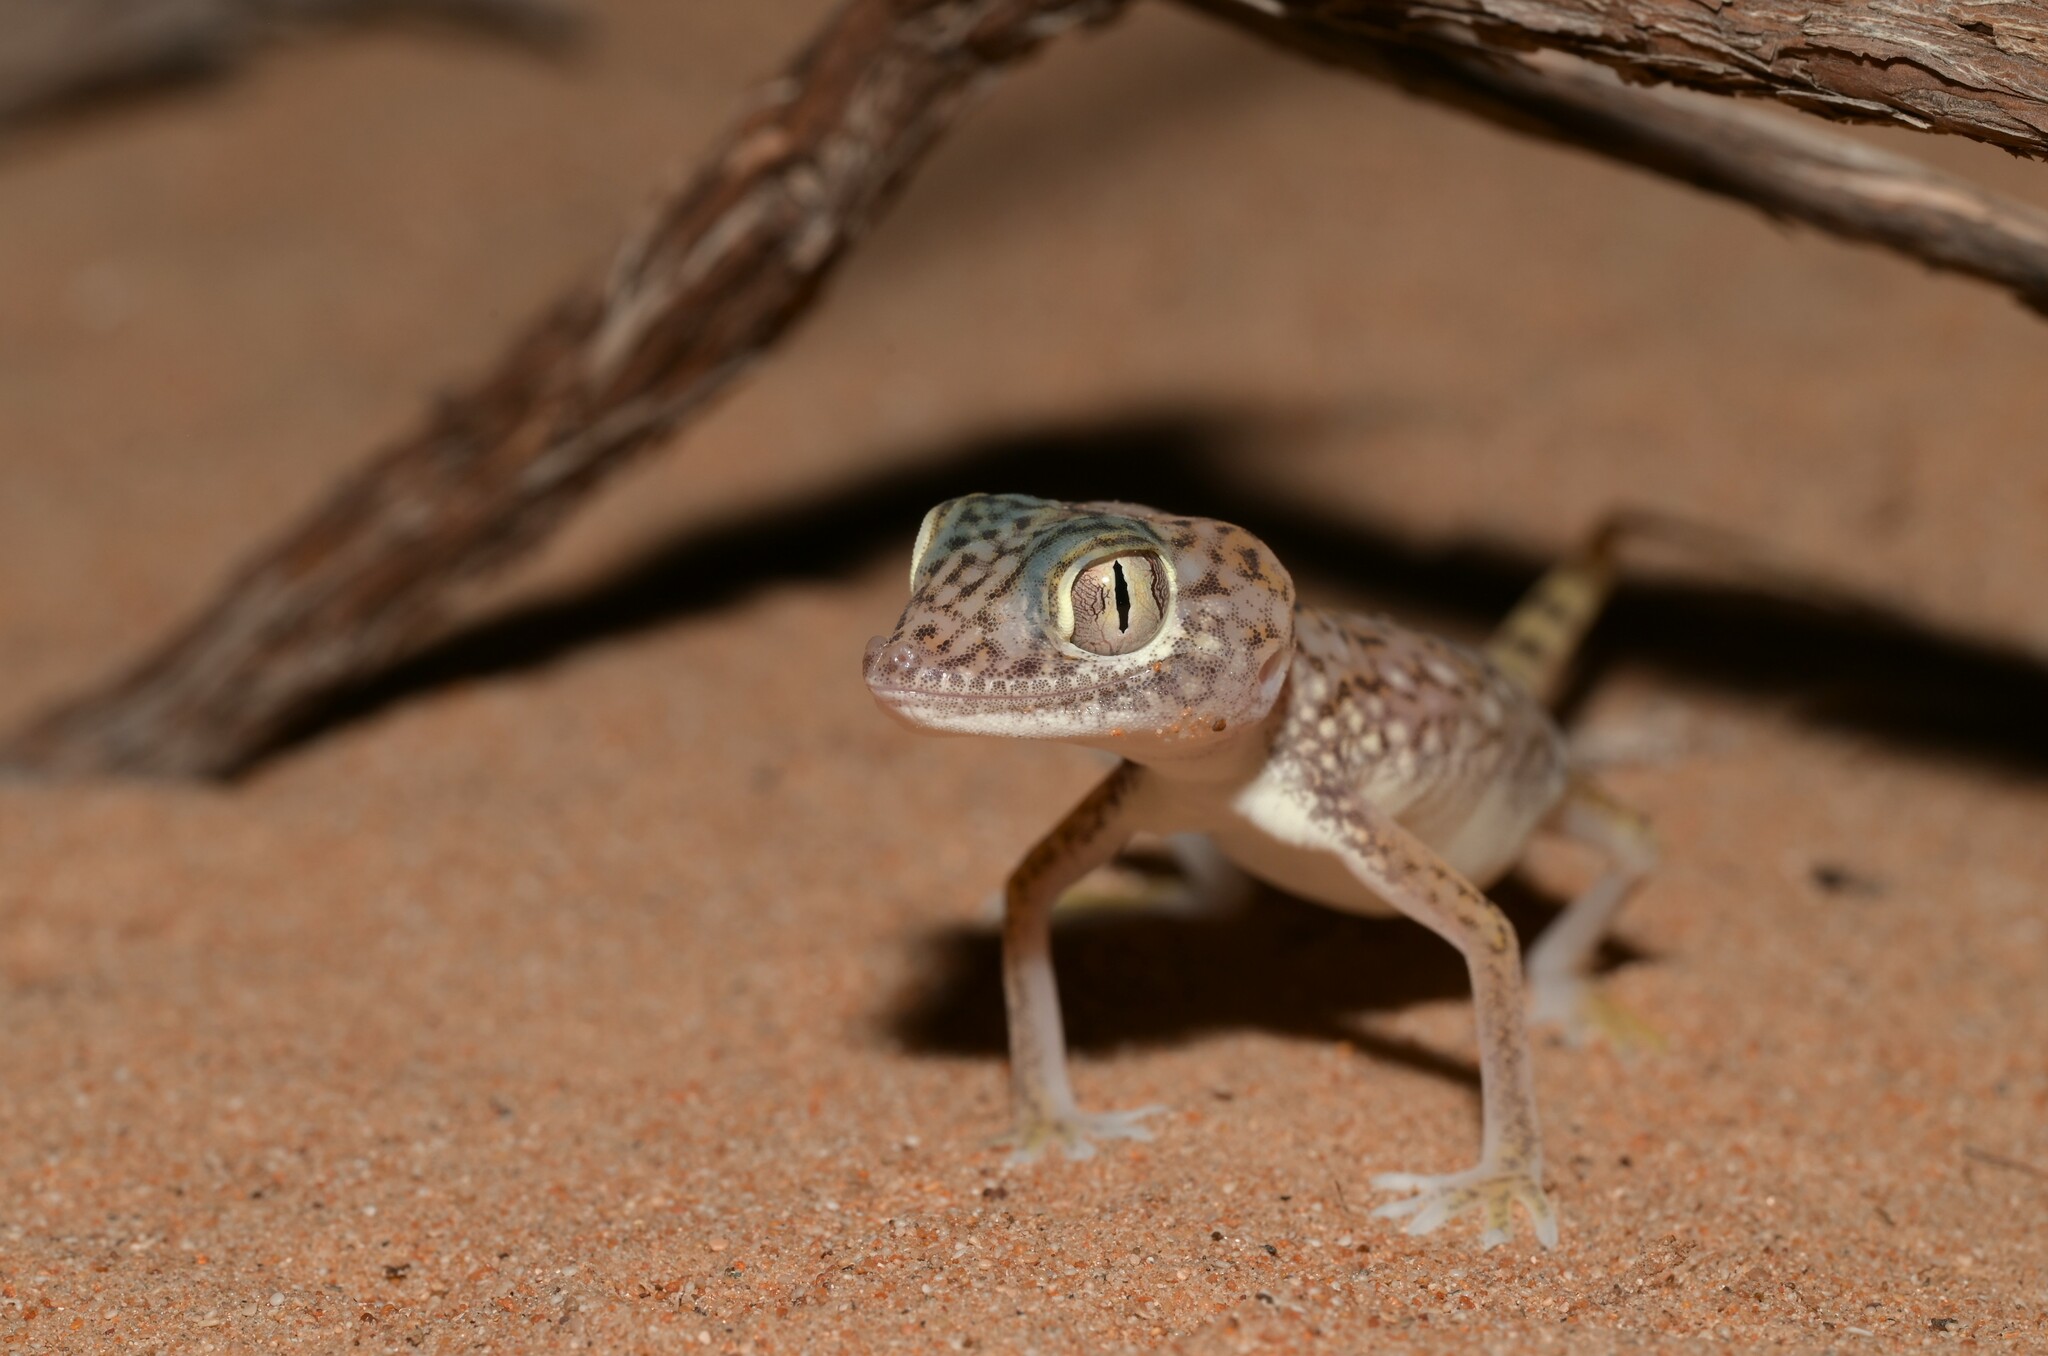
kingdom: Animalia
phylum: Chordata
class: Squamata
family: Gekkonidae
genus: Stenodactylus
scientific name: Stenodactylus doriae
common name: Dune sand gecko
